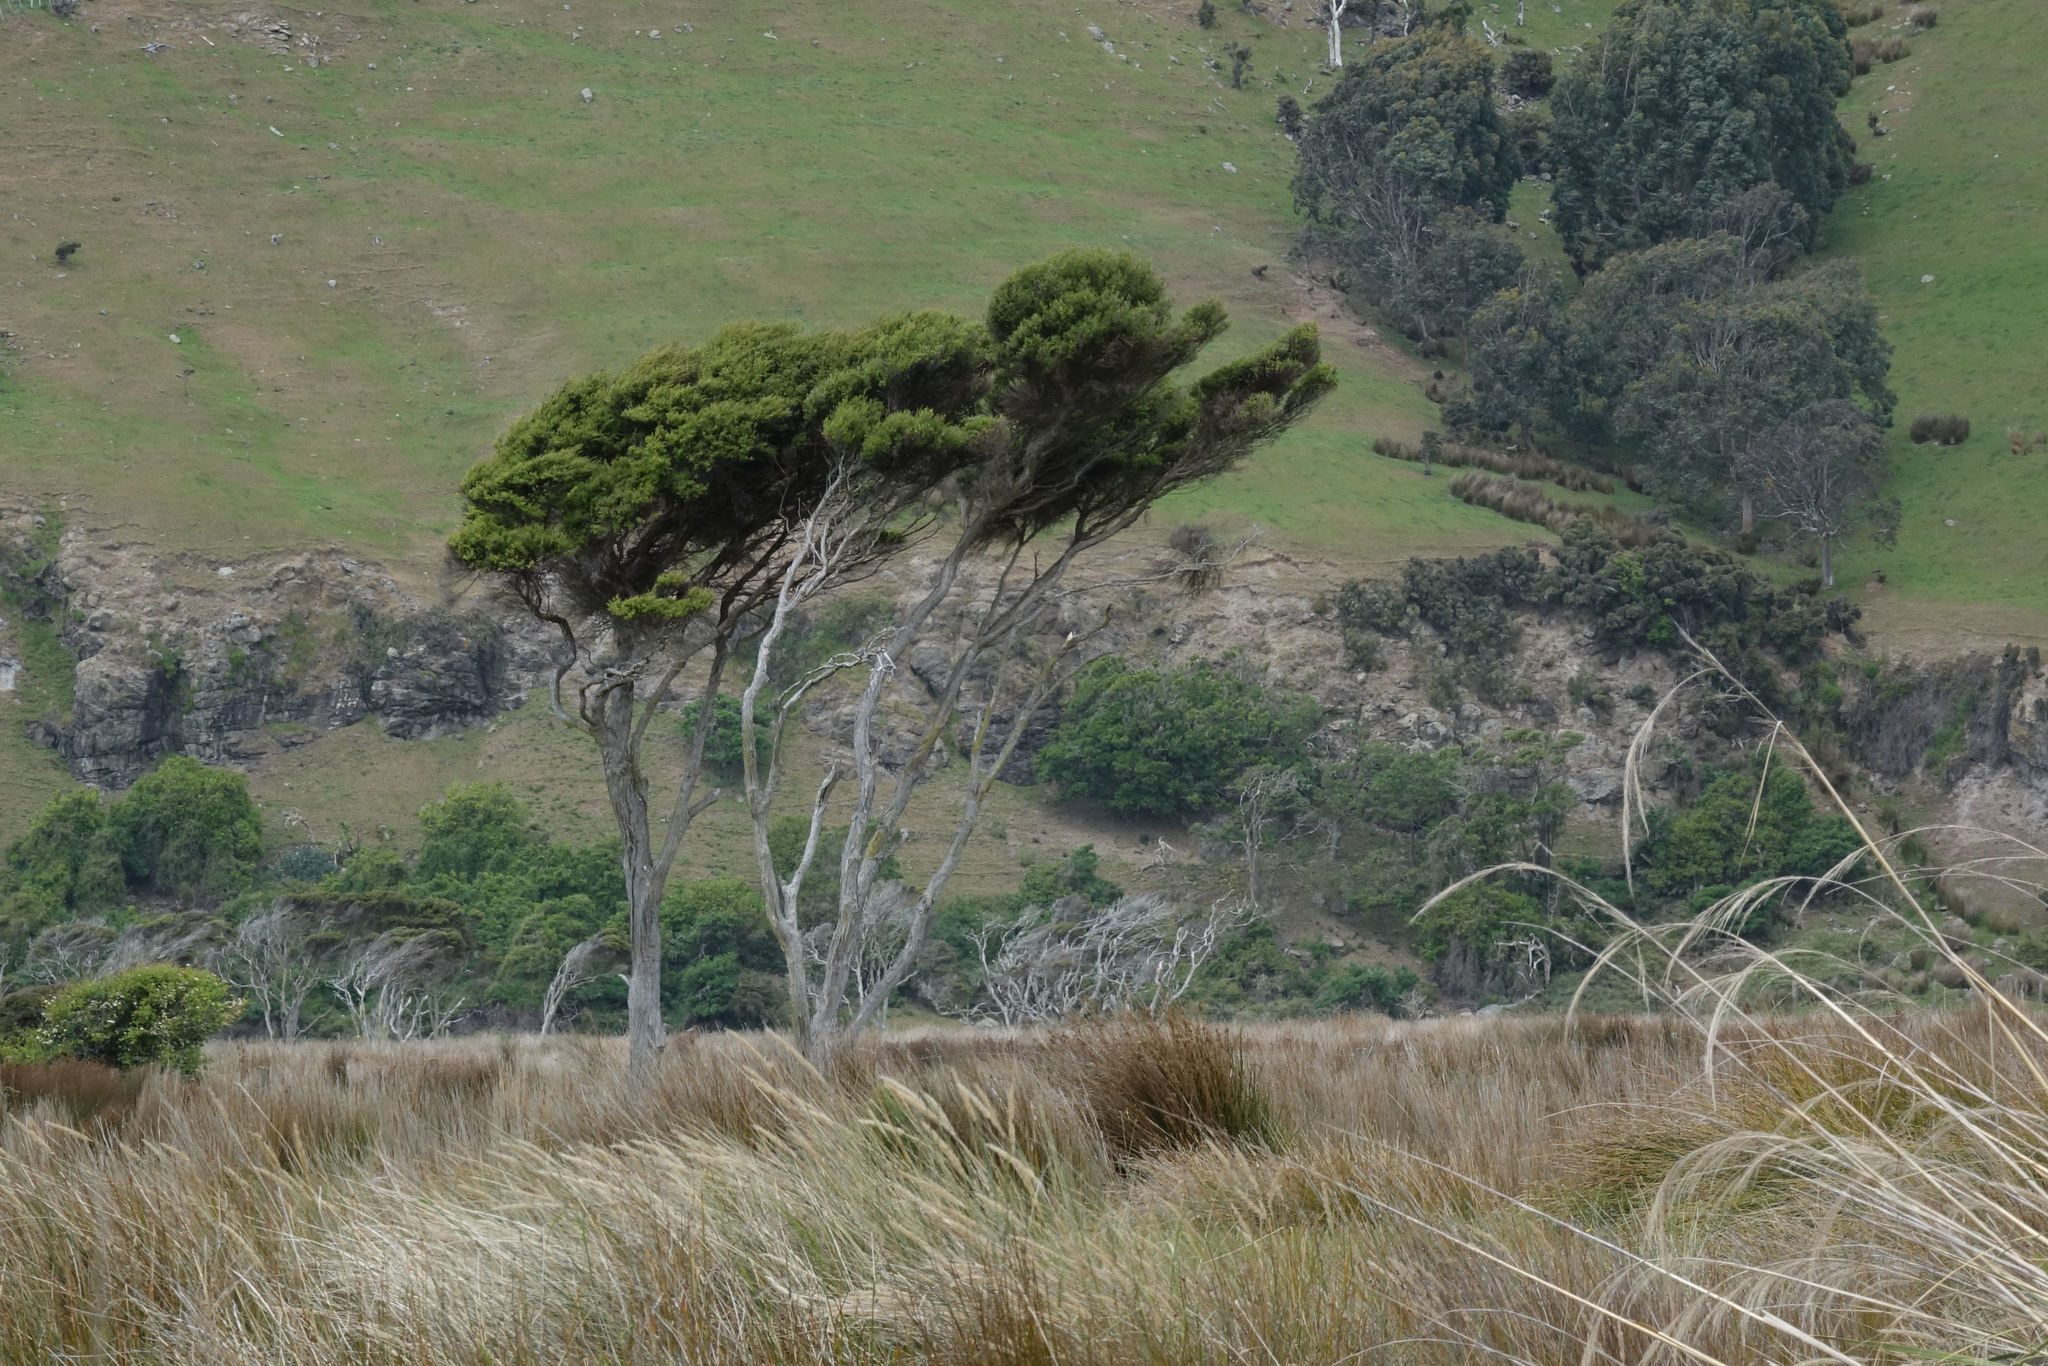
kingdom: Plantae
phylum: Tracheophyta
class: Magnoliopsida
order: Myrtales
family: Myrtaceae
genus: Kunzea
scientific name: Kunzea robusta
